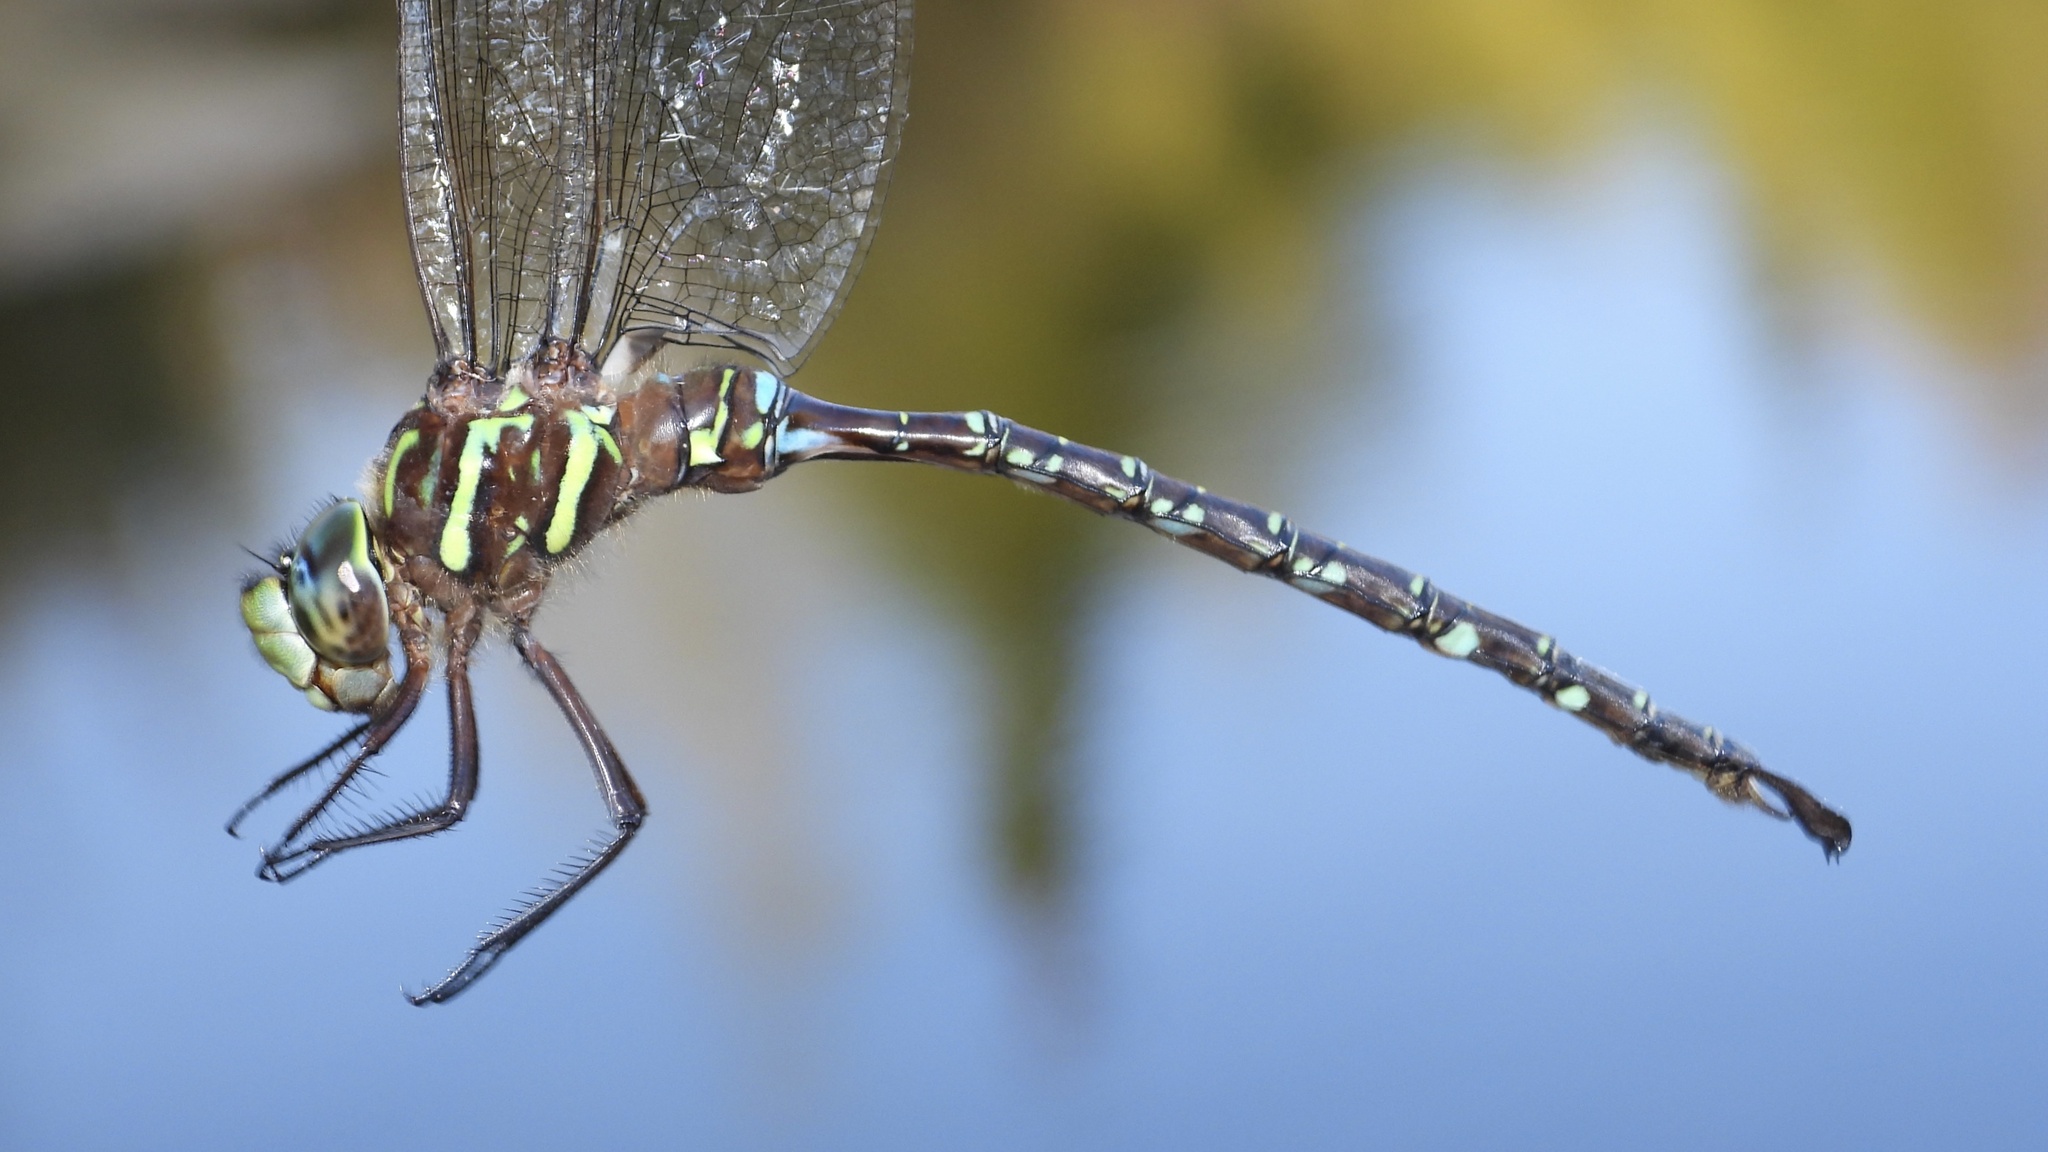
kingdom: Animalia
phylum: Arthropoda
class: Insecta
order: Odonata
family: Aeshnidae
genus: Aeshna
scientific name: Aeshna umbrosa
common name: Shadow darner
